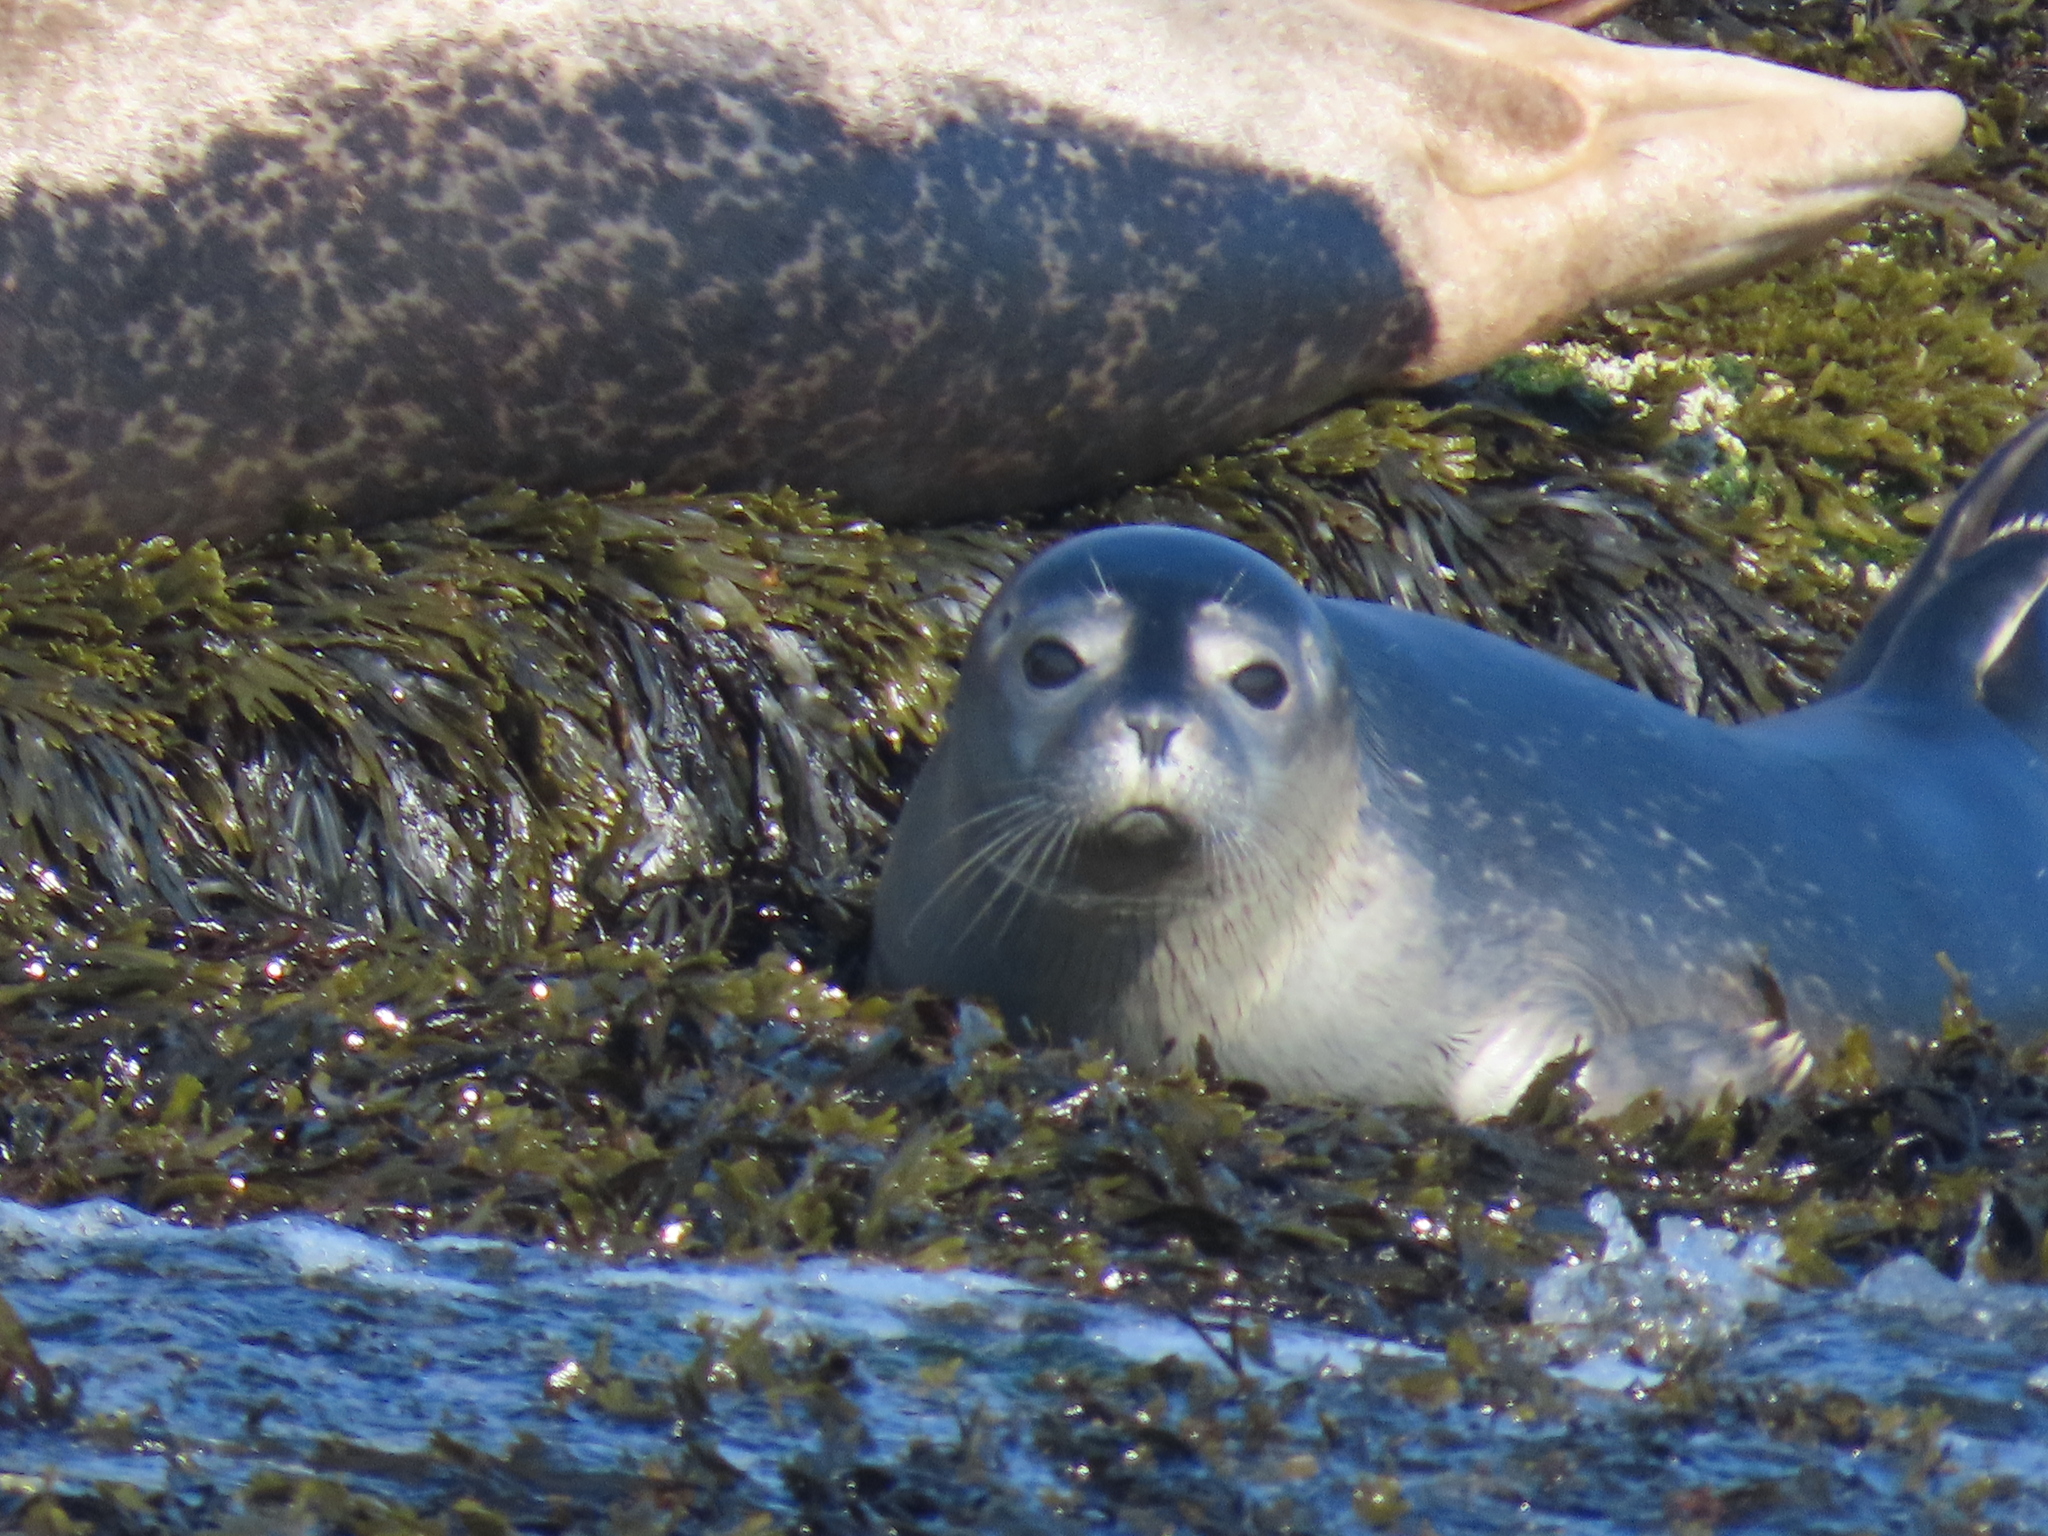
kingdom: Animalia
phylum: Chordata
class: Mammalia
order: Carnivora
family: Phocidae
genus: Phoca
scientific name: Phoca vitulina
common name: Harbor seal
